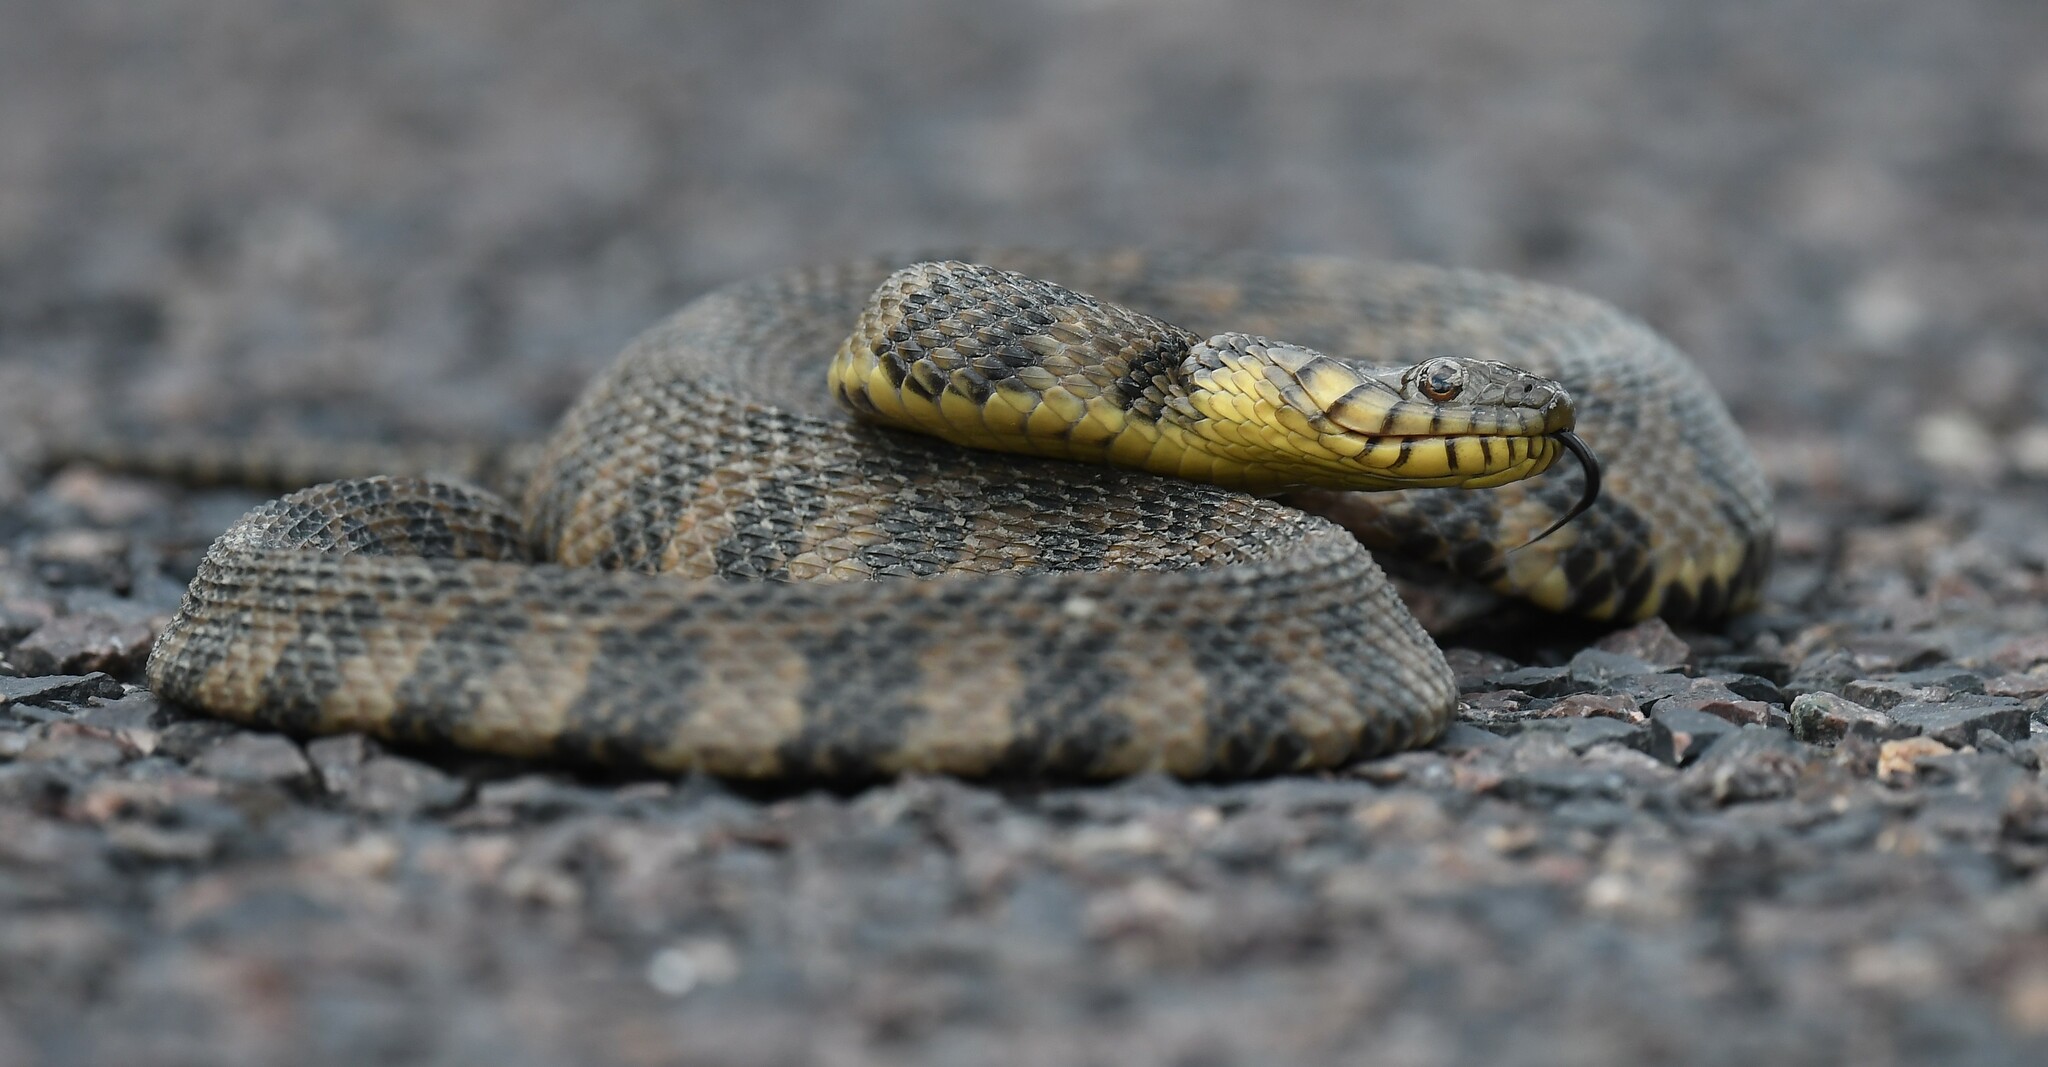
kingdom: Animalia
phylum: Chordata
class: Squamata
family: Colubridae
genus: Nerodia
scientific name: Nerodia rhombifer
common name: Diamondback water snake
